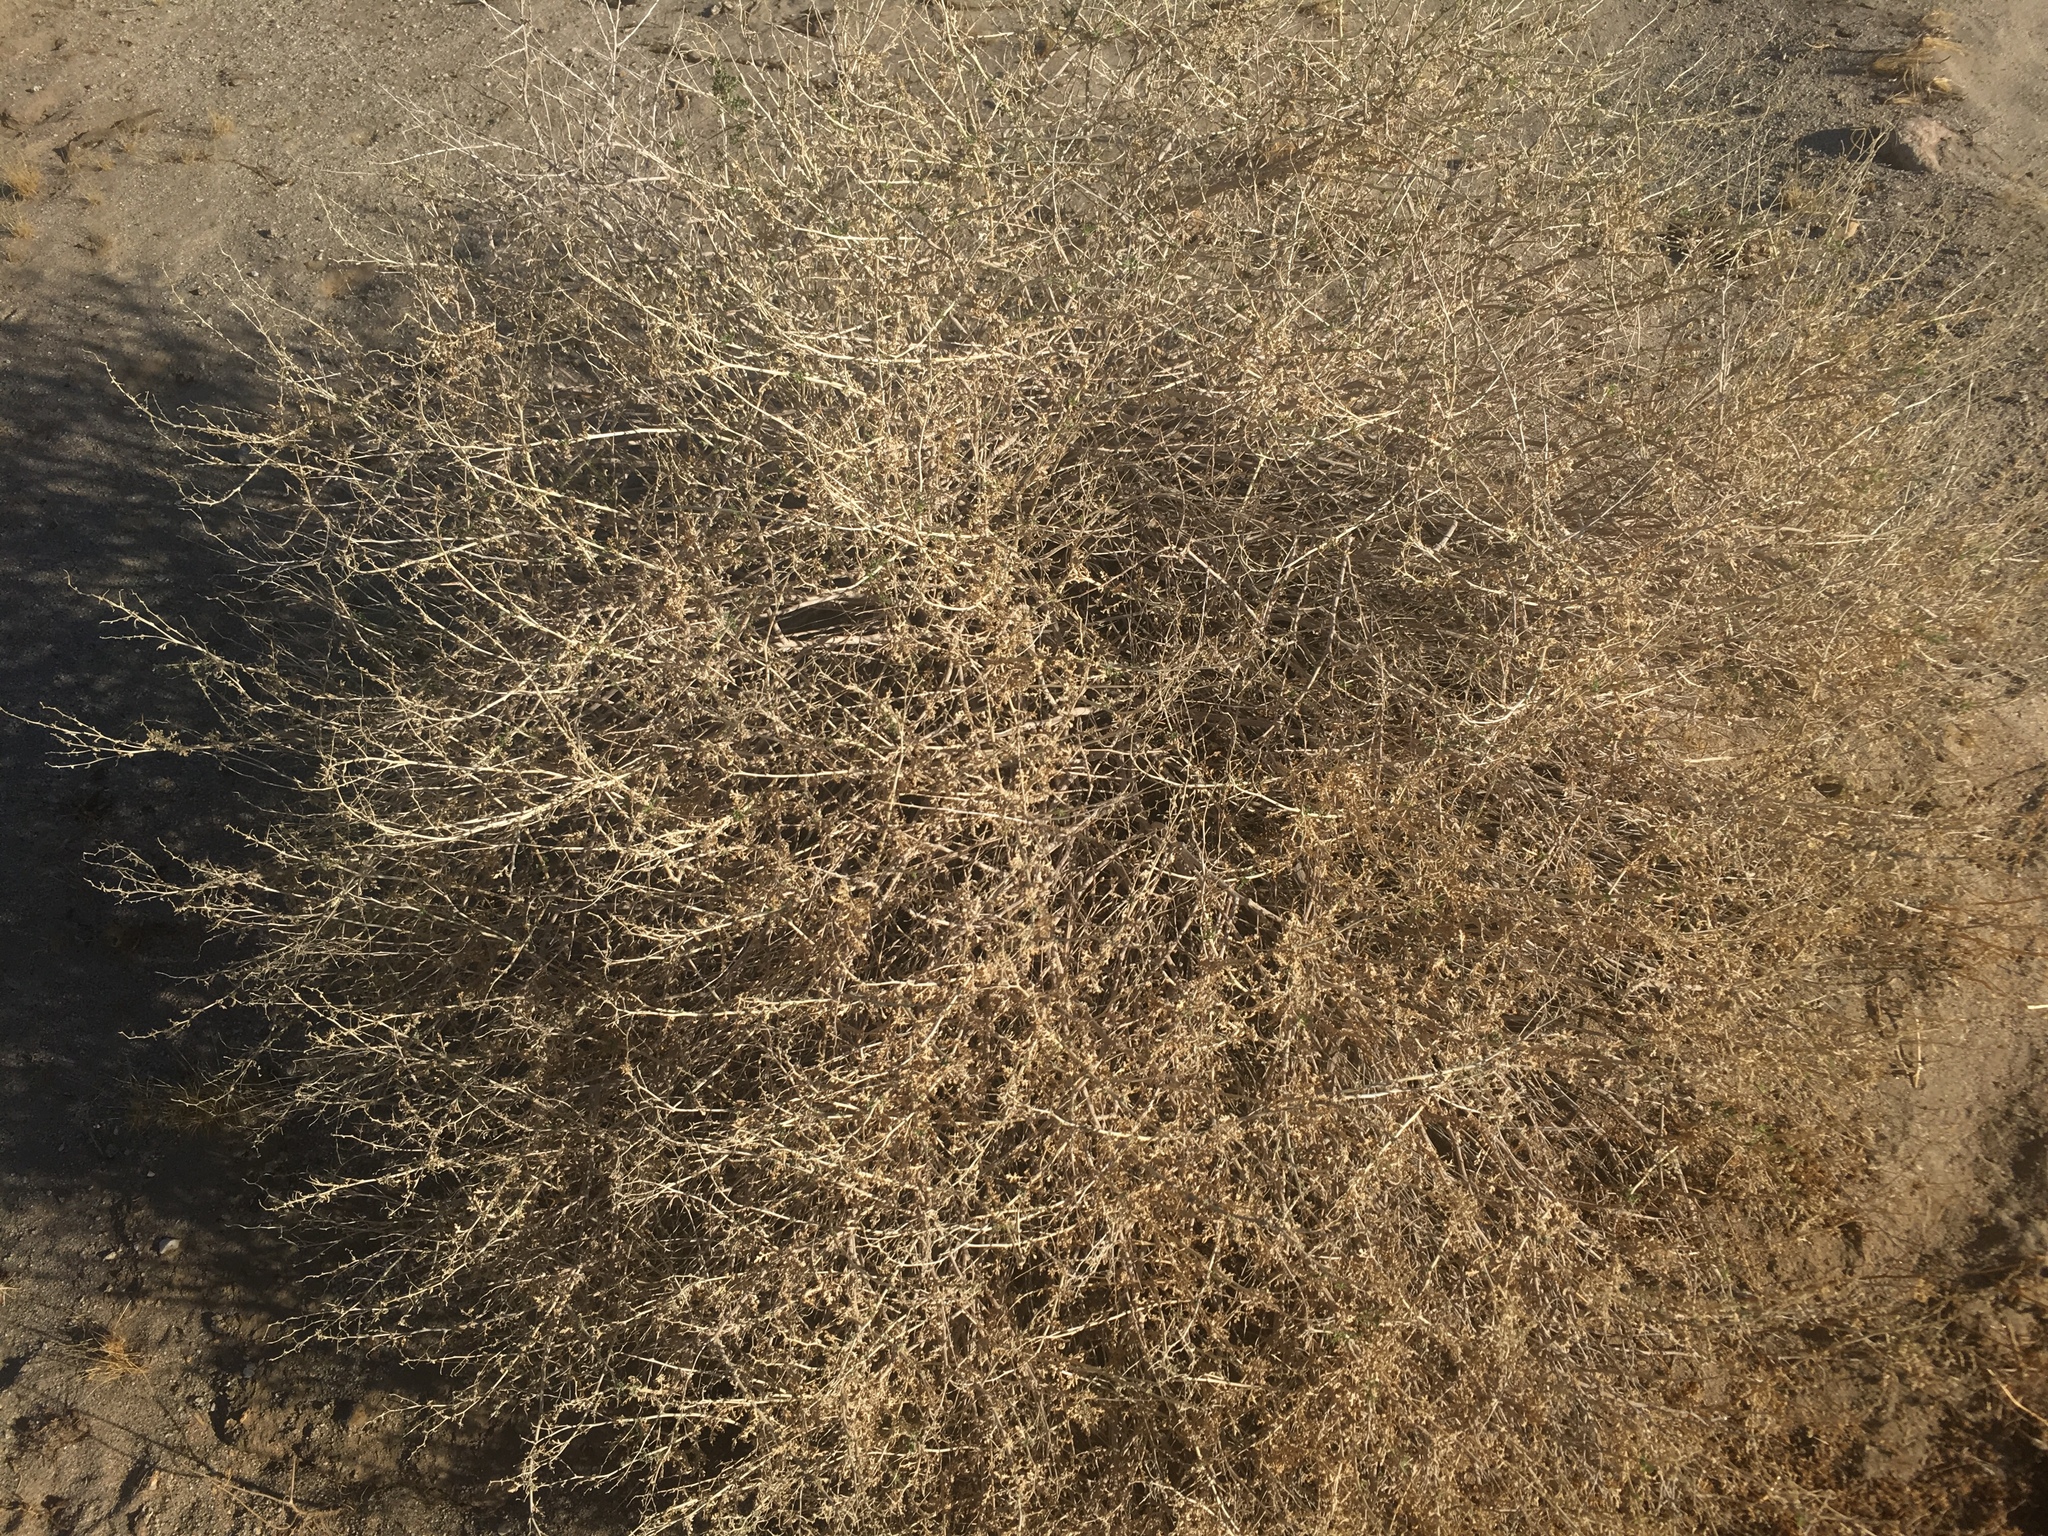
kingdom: Plantae
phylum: Tracheophyta
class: Magnoliopsida
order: Asterales
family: Asteraceae
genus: Ambrosia
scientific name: Ambrosia dumosa
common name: Bur-sage
